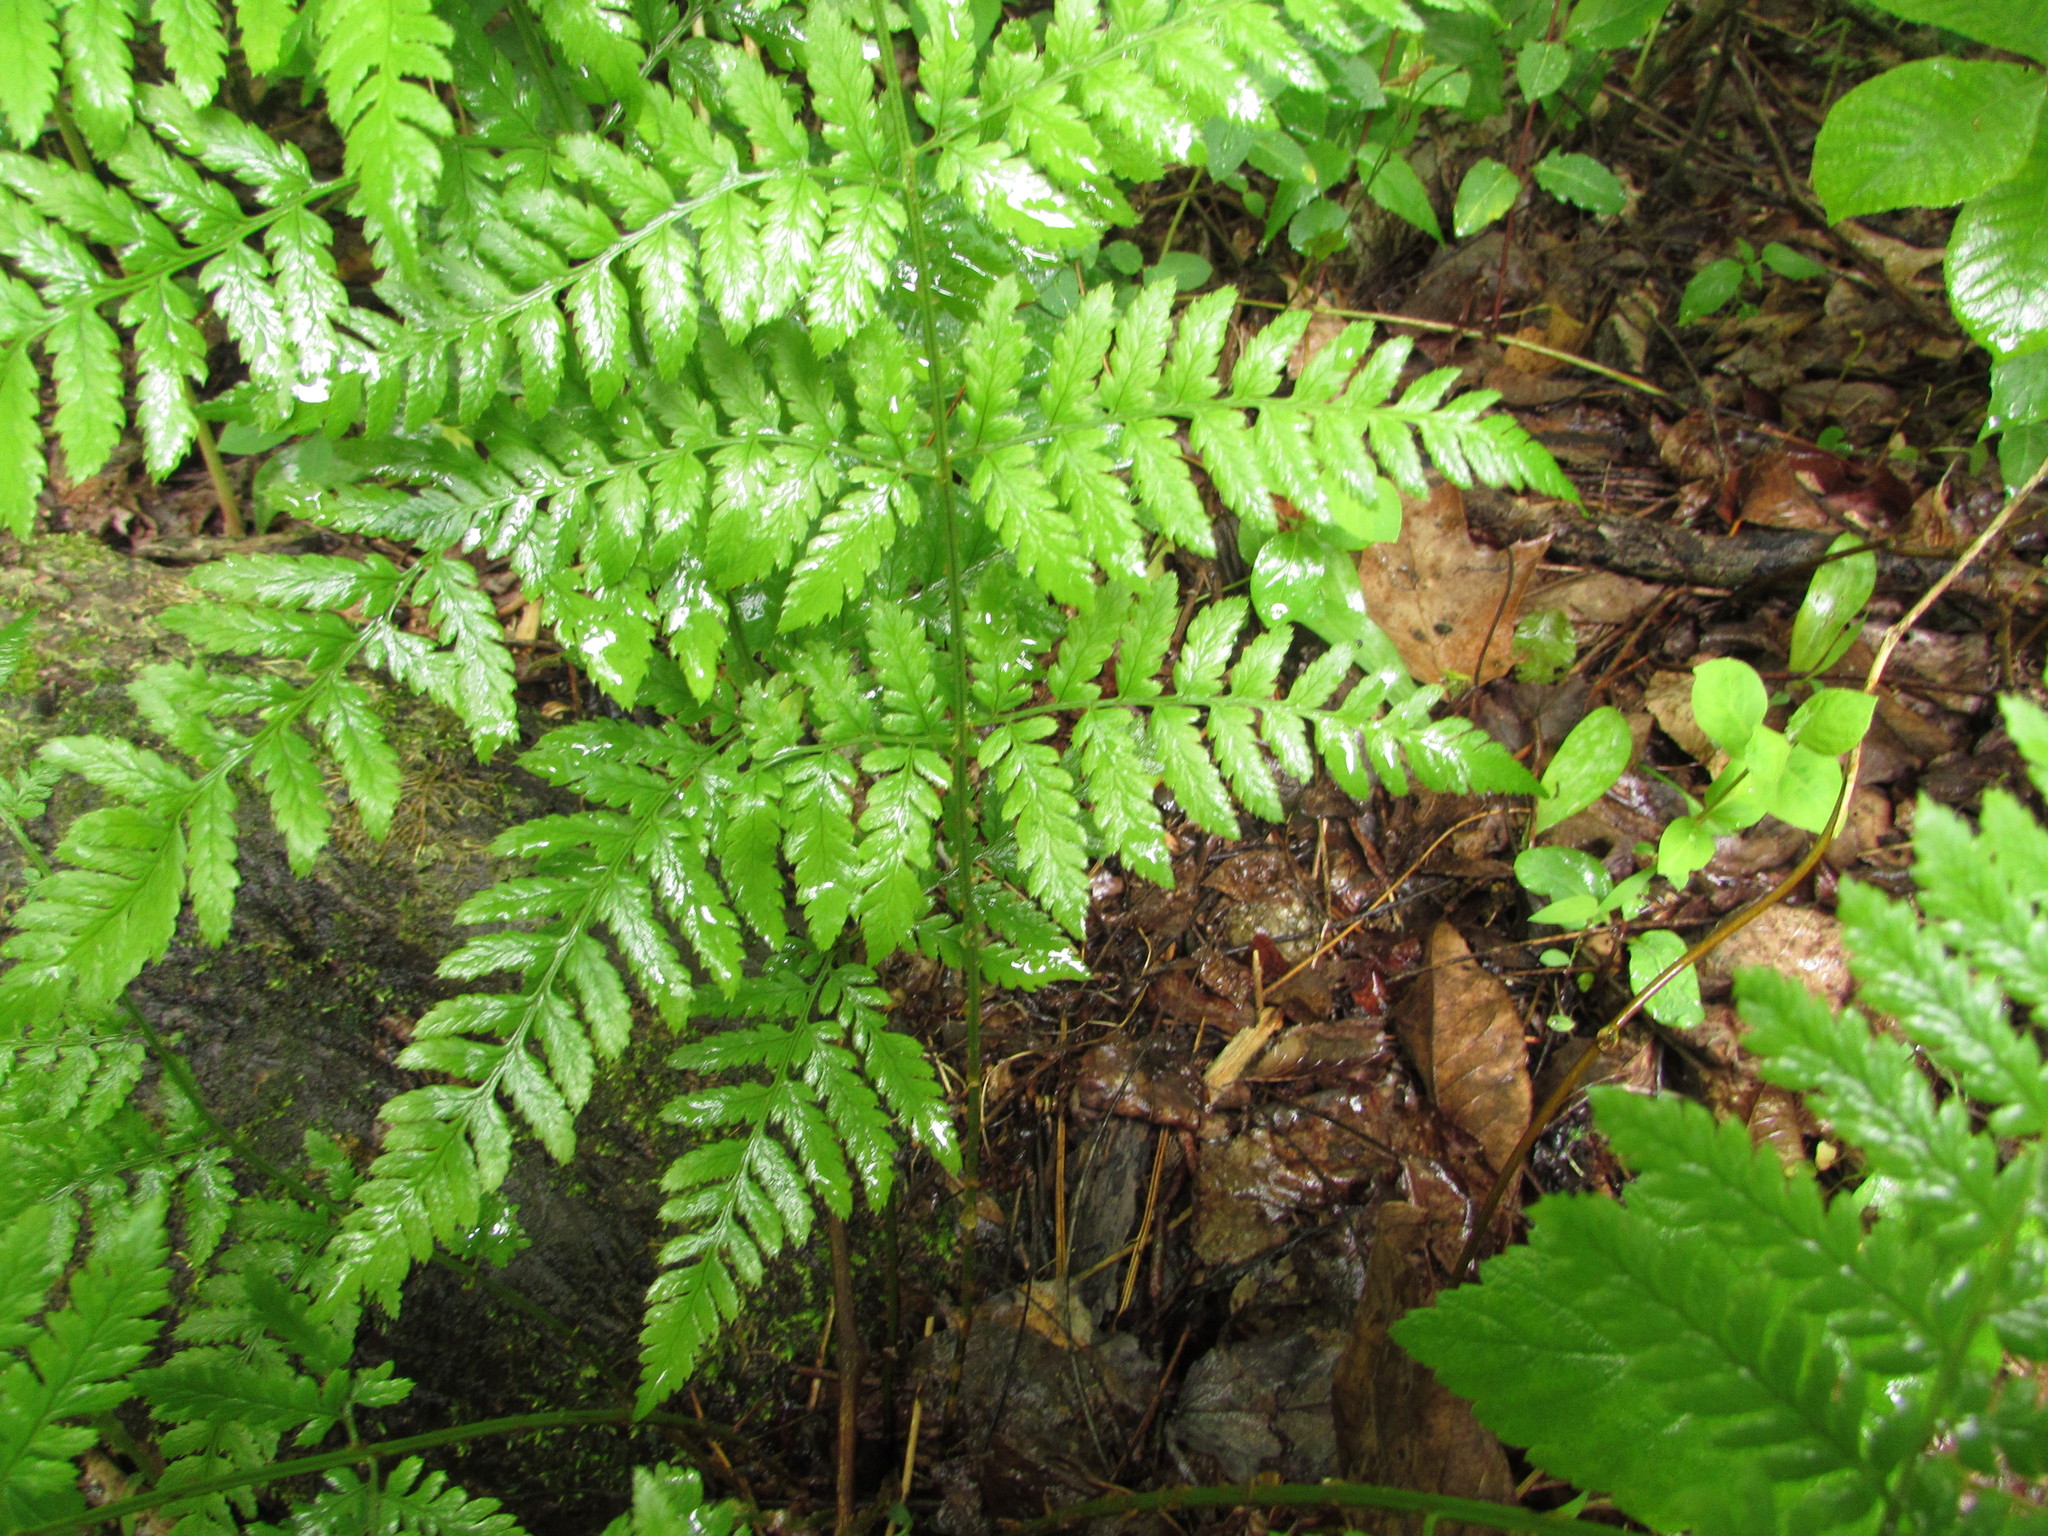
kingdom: Plantae
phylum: Tracheophyta
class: Polypodiopsida
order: Polypodiales
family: Dryopteridaceae
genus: Dryopteris
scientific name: Dryopteris carthusiana
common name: Narrow buckler-fern
